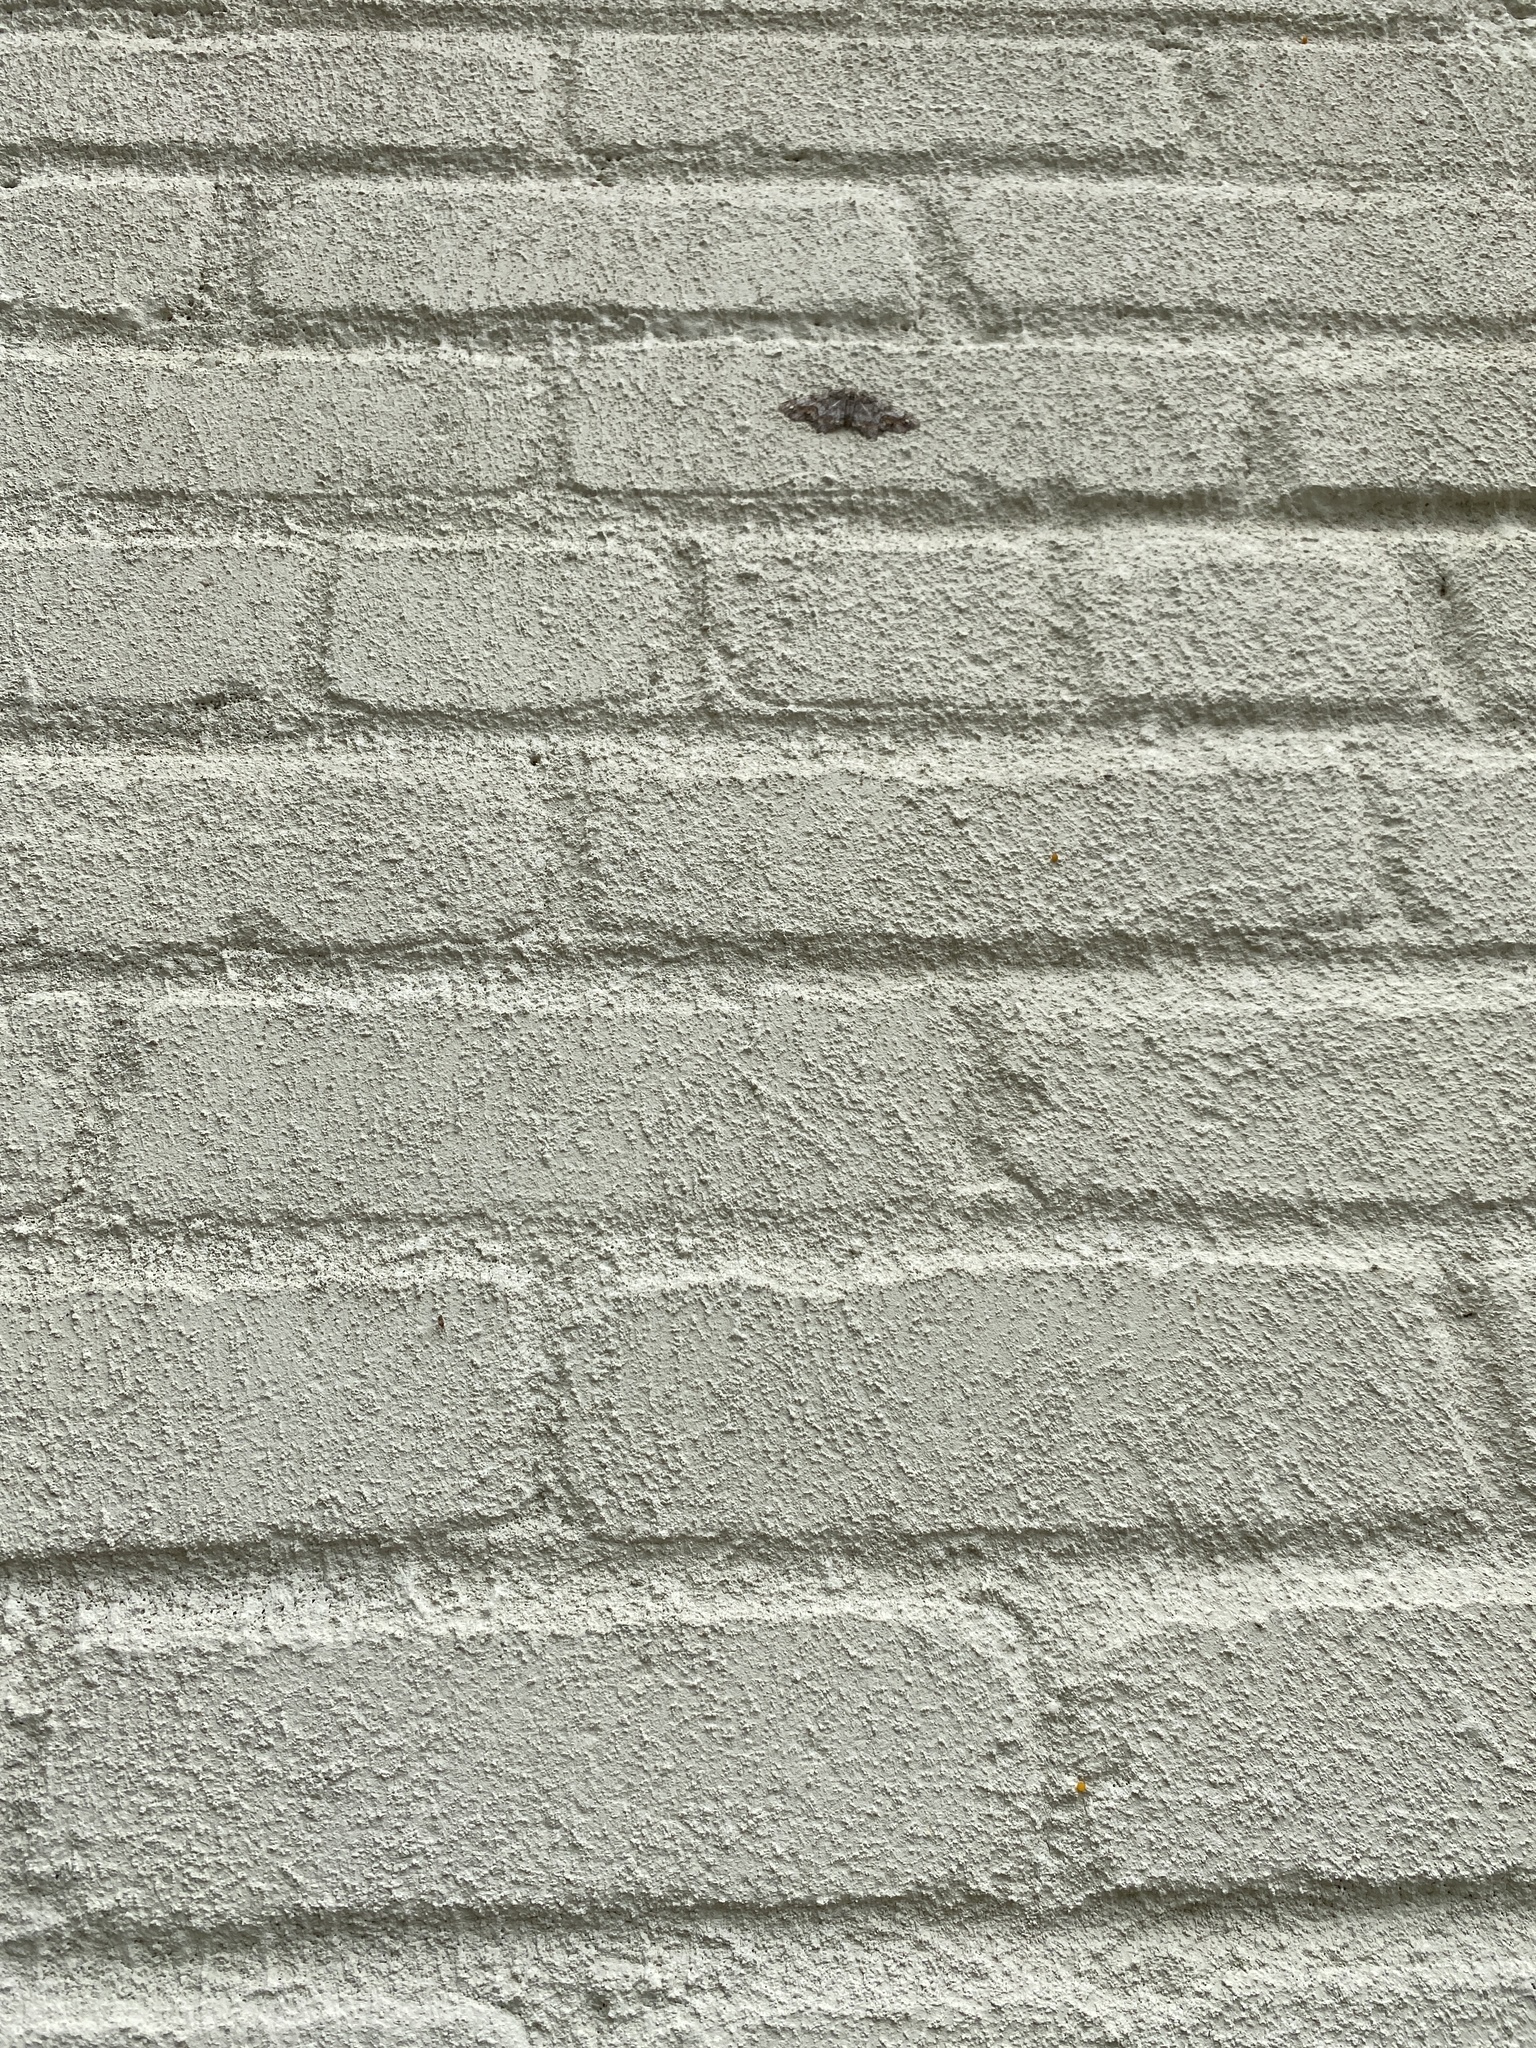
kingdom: Animalia
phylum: Arthropoda
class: Insecta
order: Lepidoptera
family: Geometridae
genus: Hypagyrtis
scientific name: Hypagyrtis unipunctata
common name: One-spotted variant
